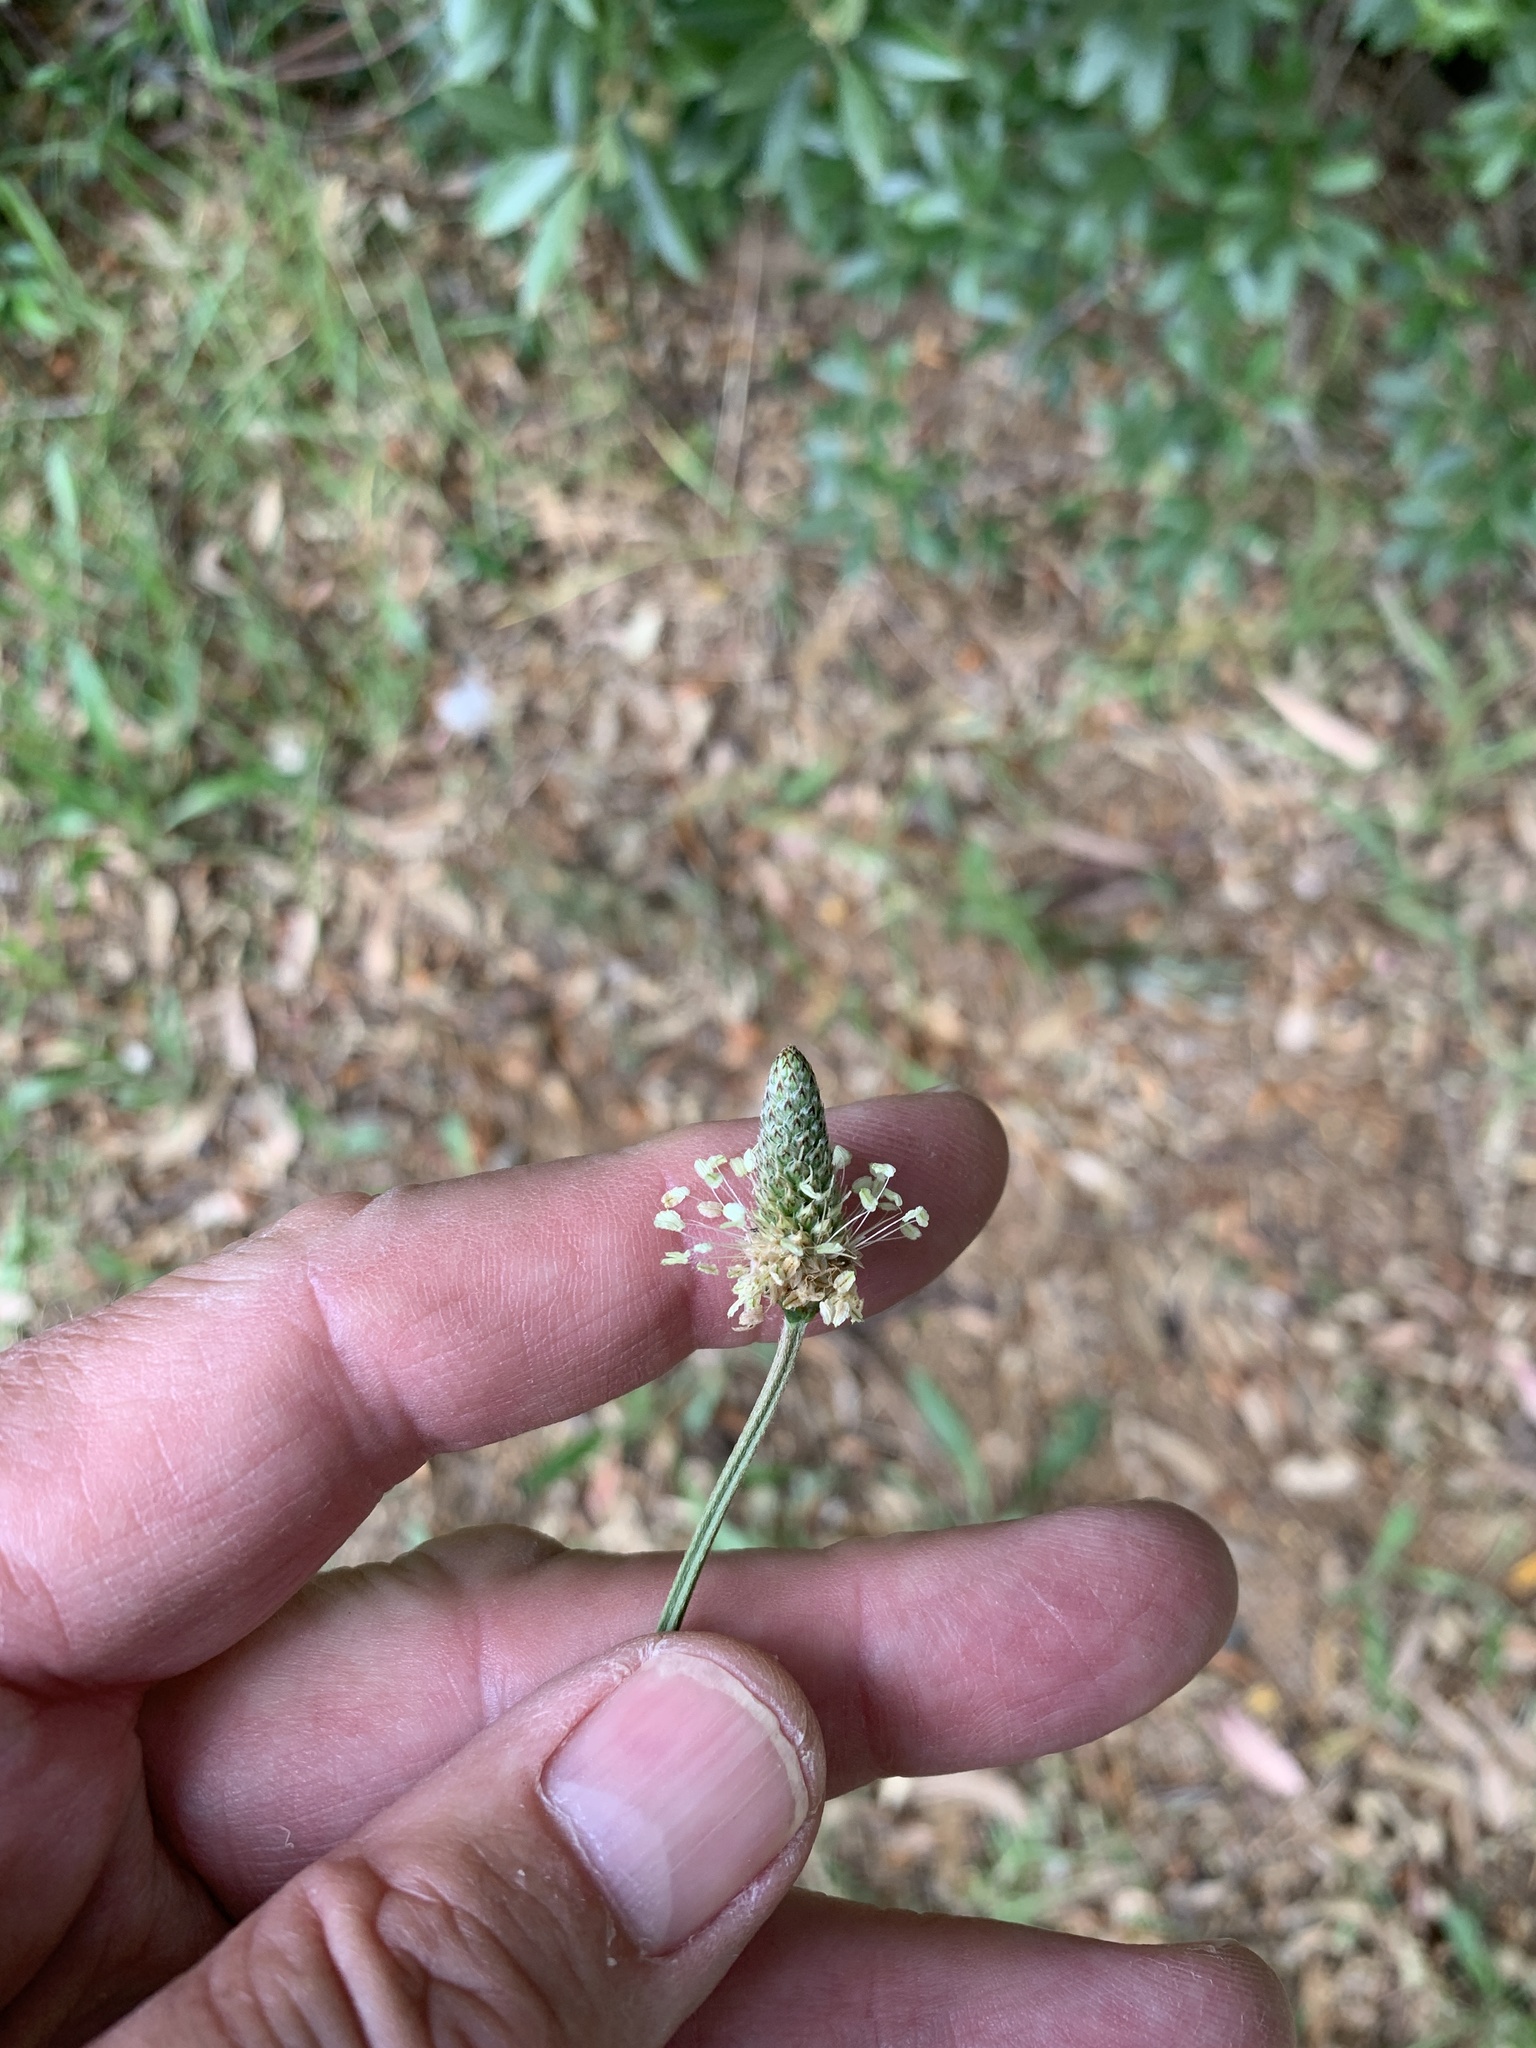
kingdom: Plantae
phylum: Tracheophyta
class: Magnoliopsida
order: Lamiales
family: Plantaginaceae
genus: Plantago
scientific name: Plantago lanceolata
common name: Ribwort plantain
